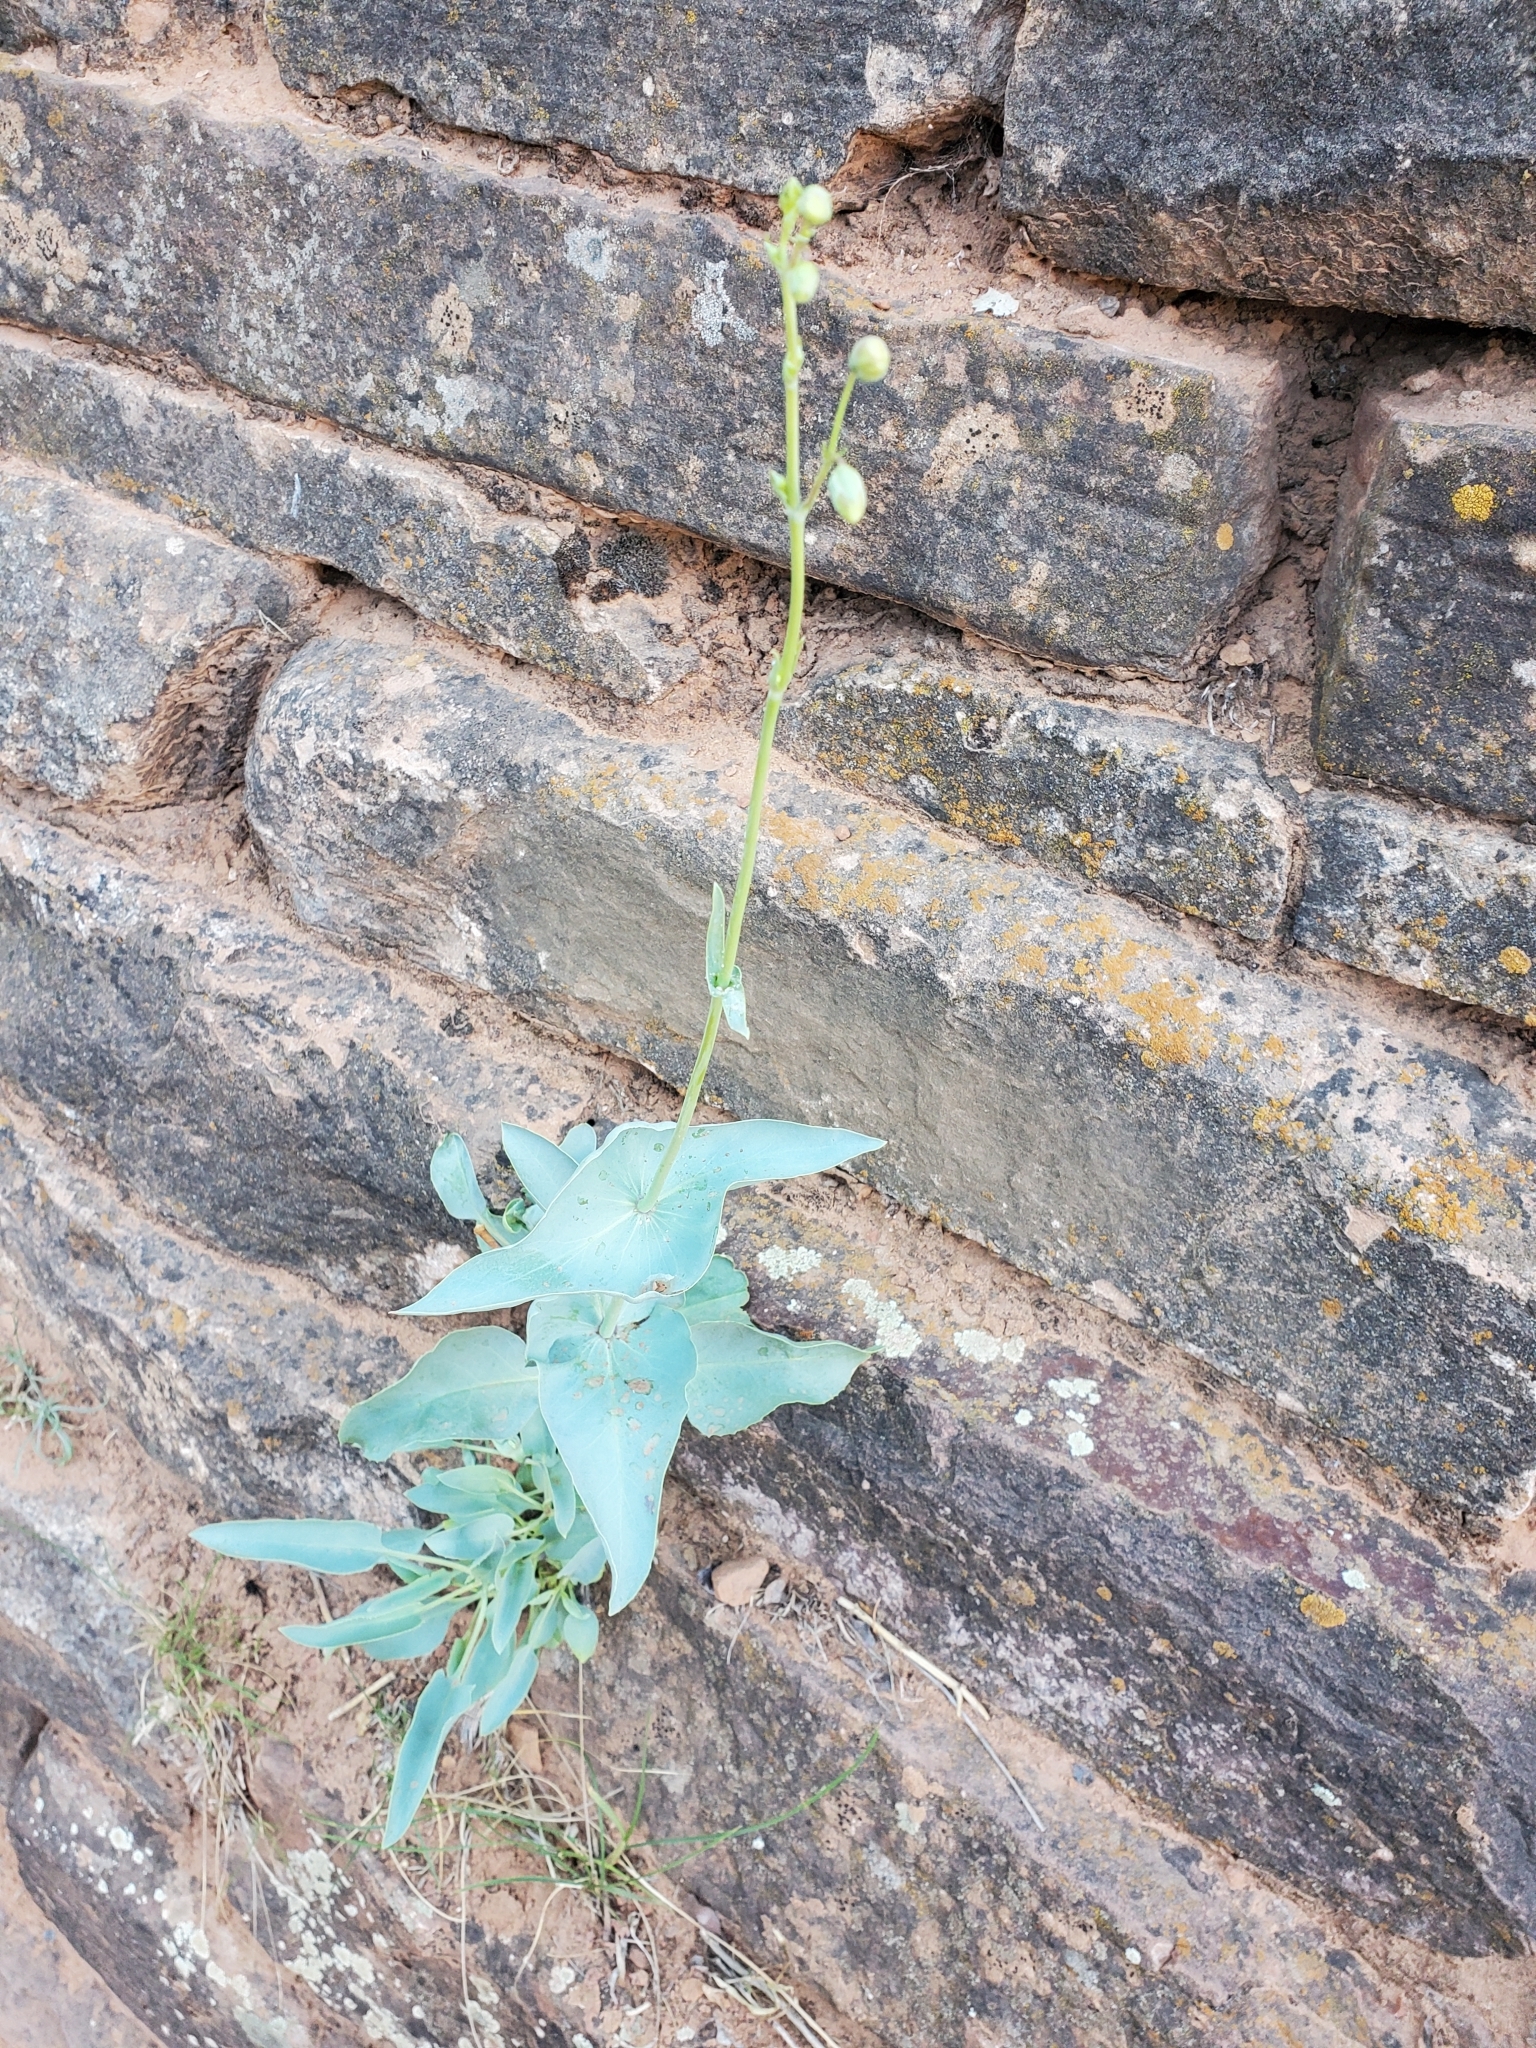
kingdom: Plantae
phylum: Tracheophyta
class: Magnoliopsida
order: Lamiales
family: Plantaginaceae
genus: Penstemon
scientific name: Penstemon palmeri
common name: Palmer penstemon
